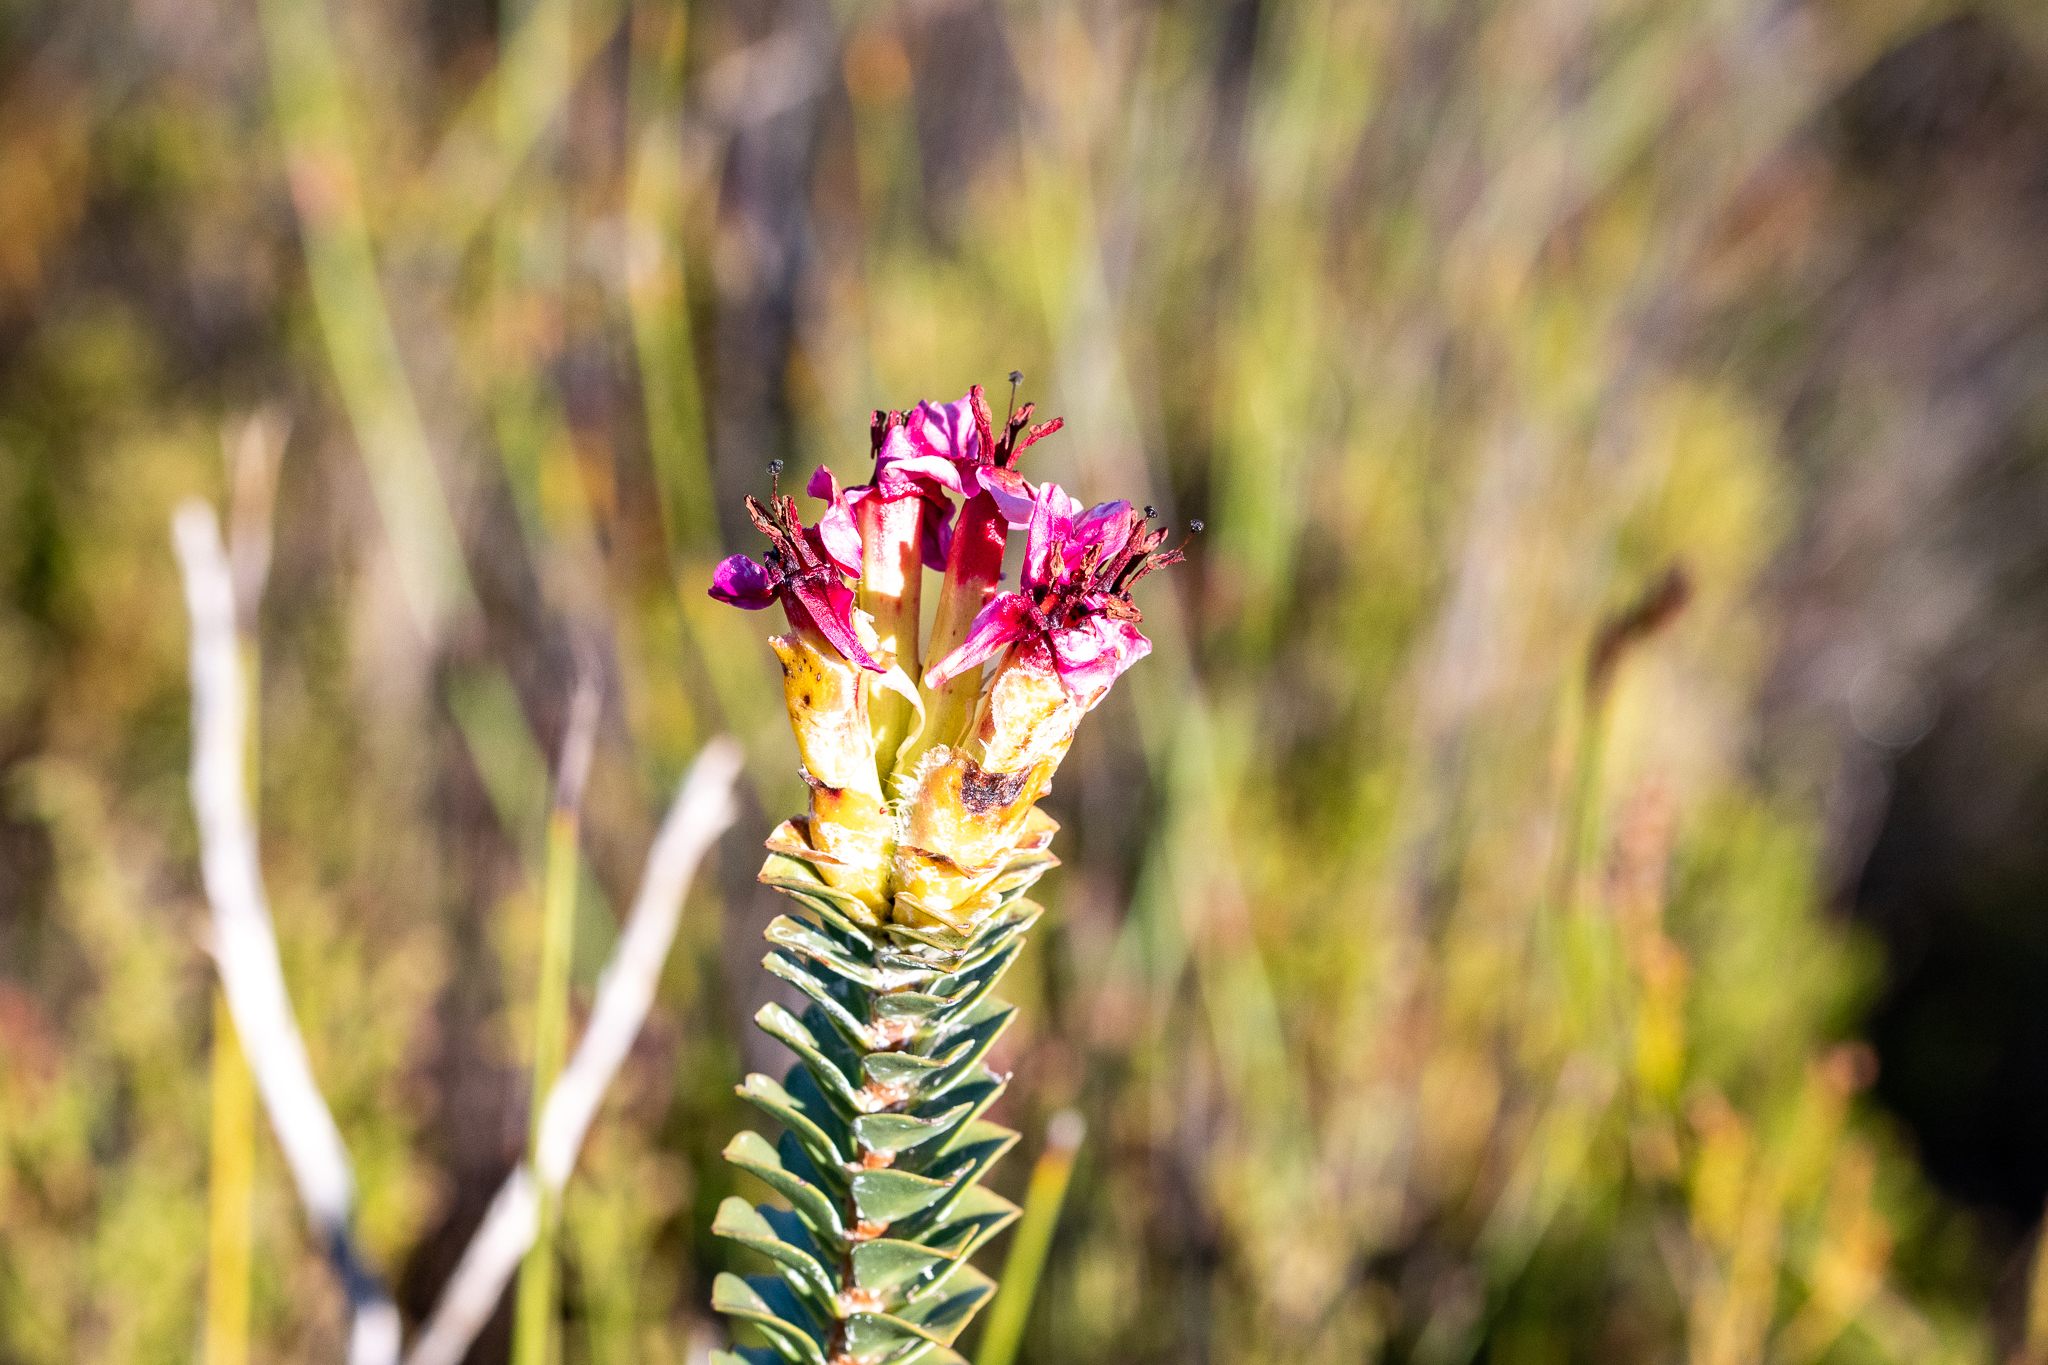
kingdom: Plantae
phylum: Tracheophyta
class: Magnoliopsida
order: Myrtales
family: Penaeaceae
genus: Saltera
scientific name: Saltera sarcocolla
